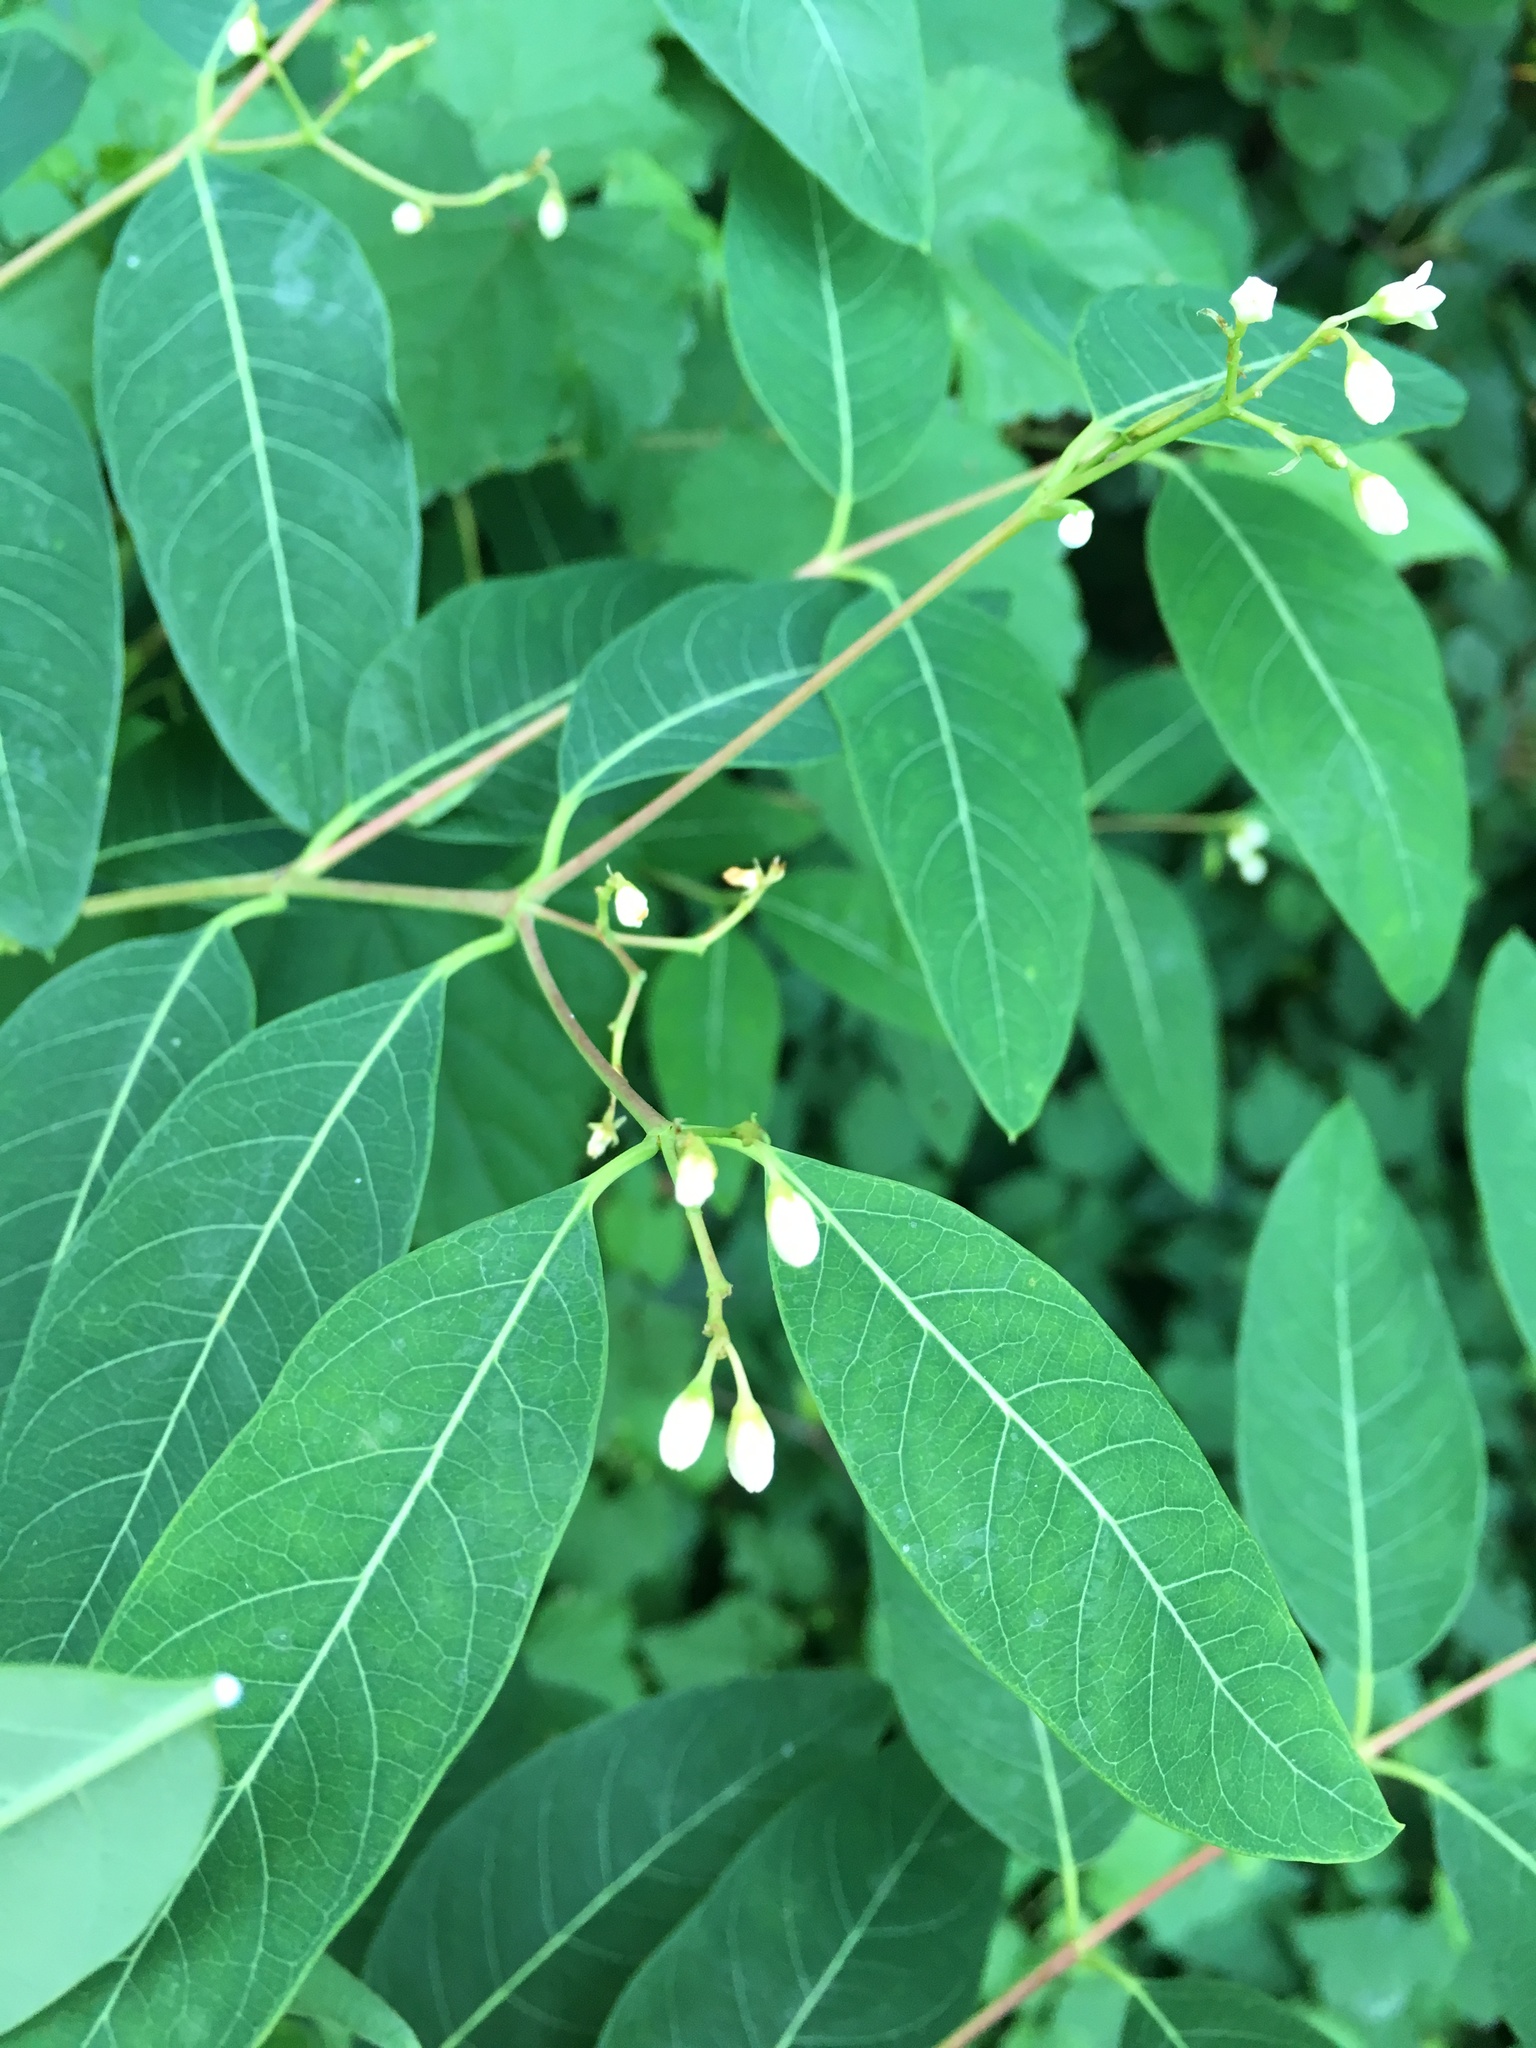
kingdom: Plantae
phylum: Tracheophyta
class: Magnoliopsida
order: Gentianales
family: Apocynaceae
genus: Apocynum
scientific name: Apocynum cannabinum
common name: Hemp dogbane
